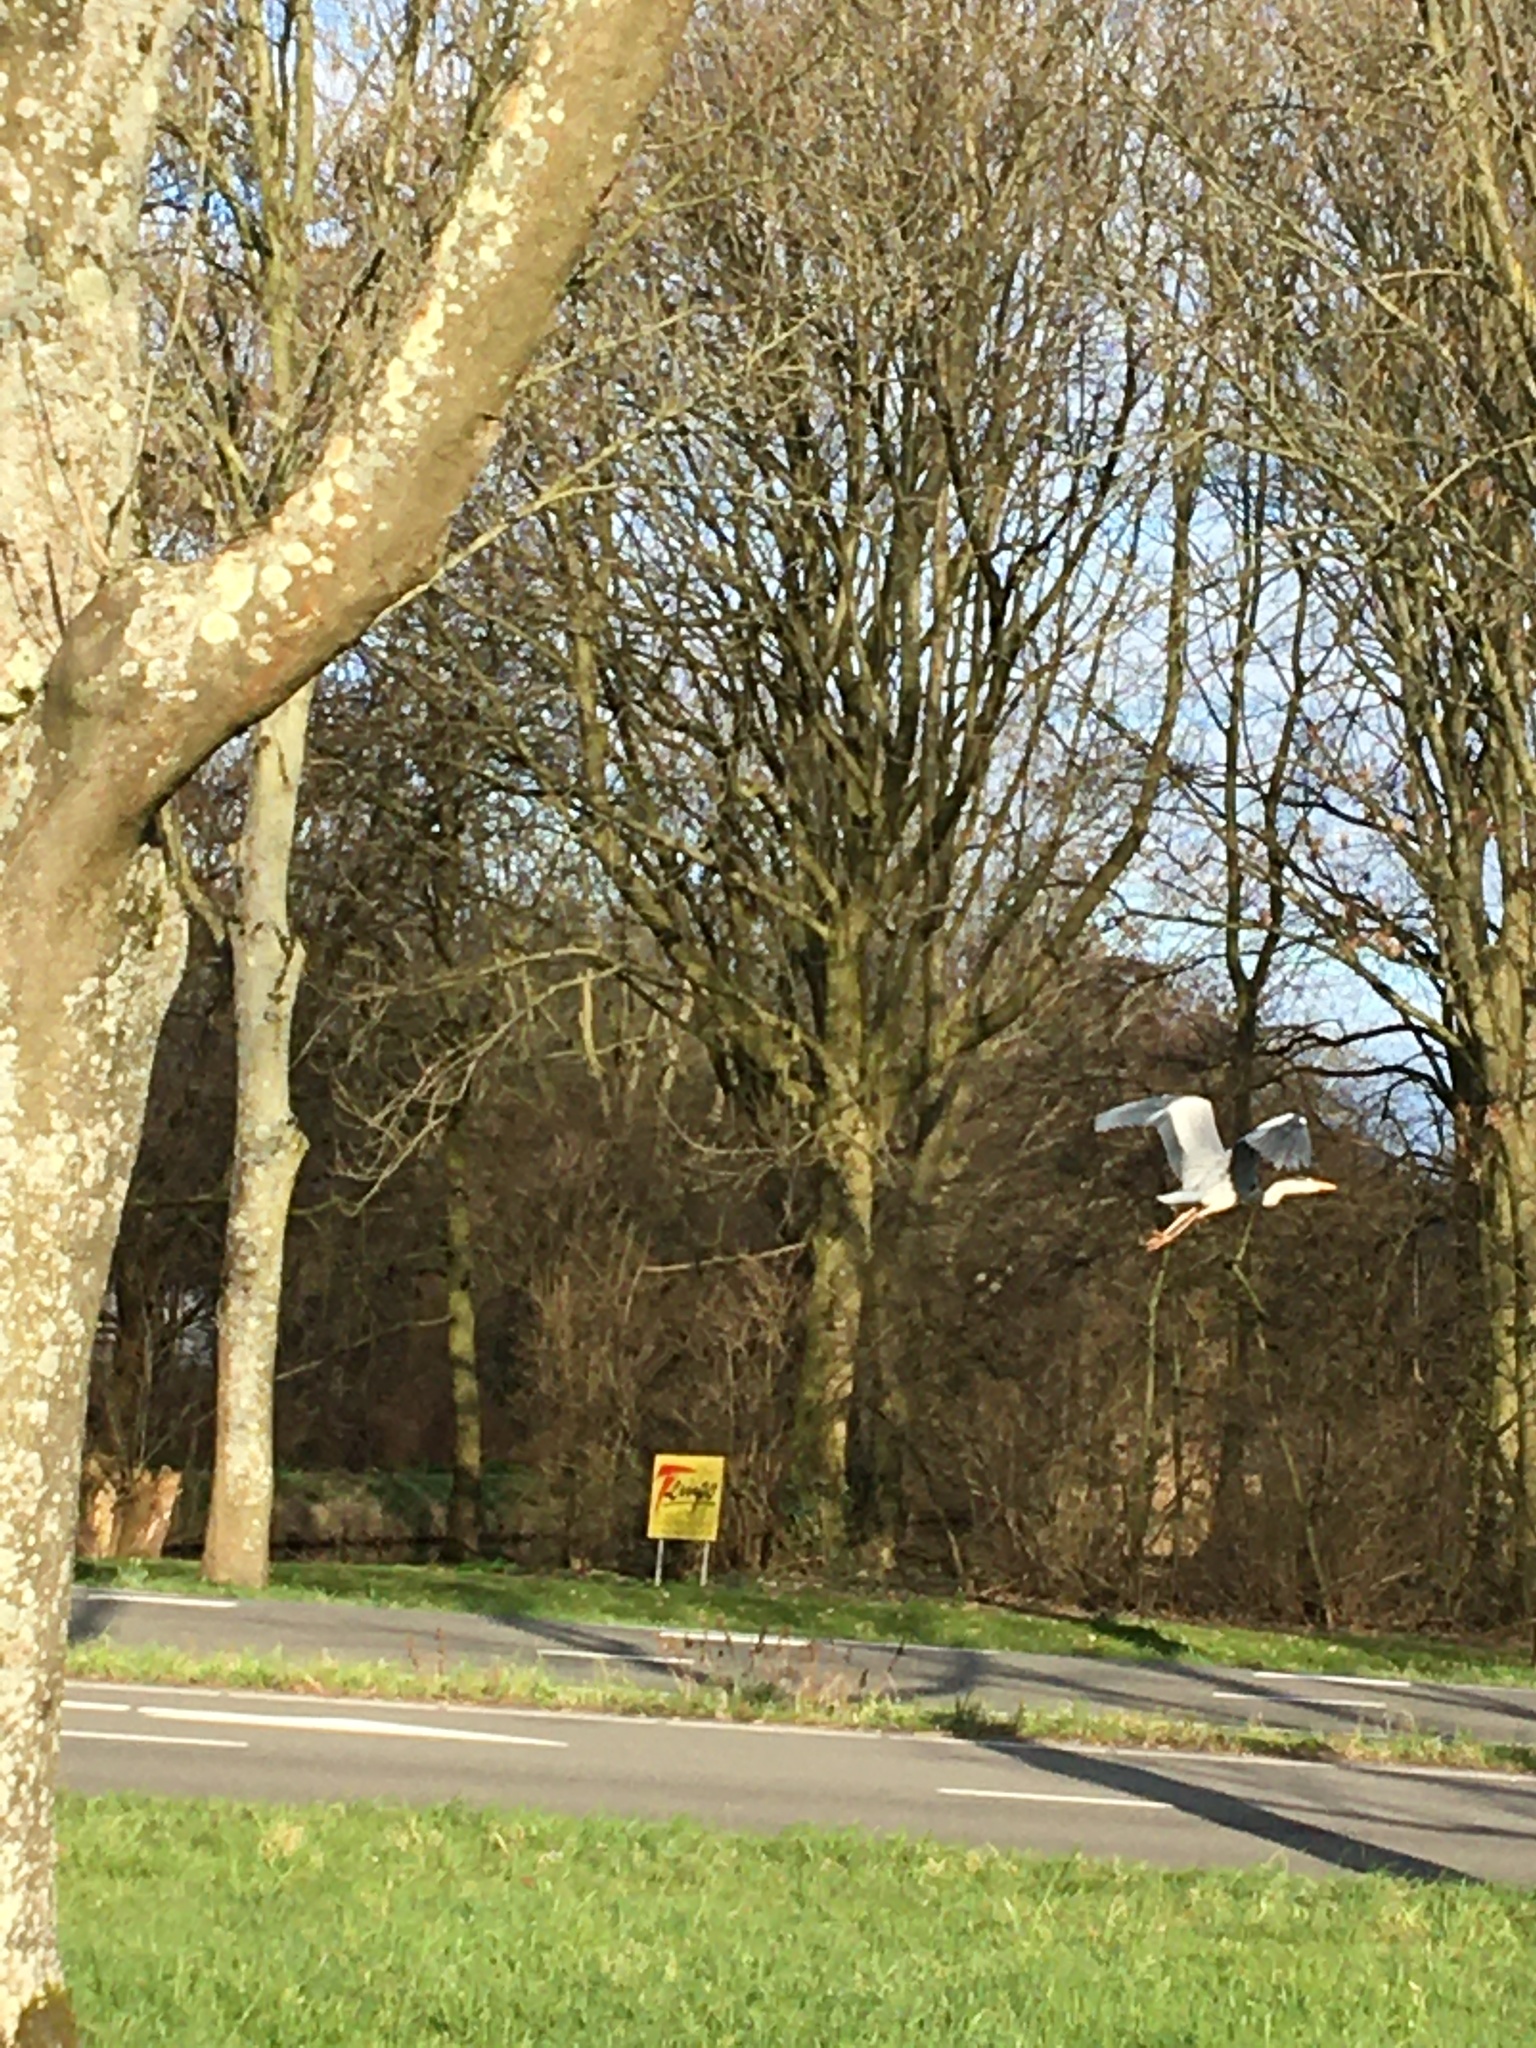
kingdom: Animalia
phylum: Chordata
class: Aves
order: Pelecaniformes
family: Ardeidae
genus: Ardea
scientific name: Ardea cinerea
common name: Grey heron
